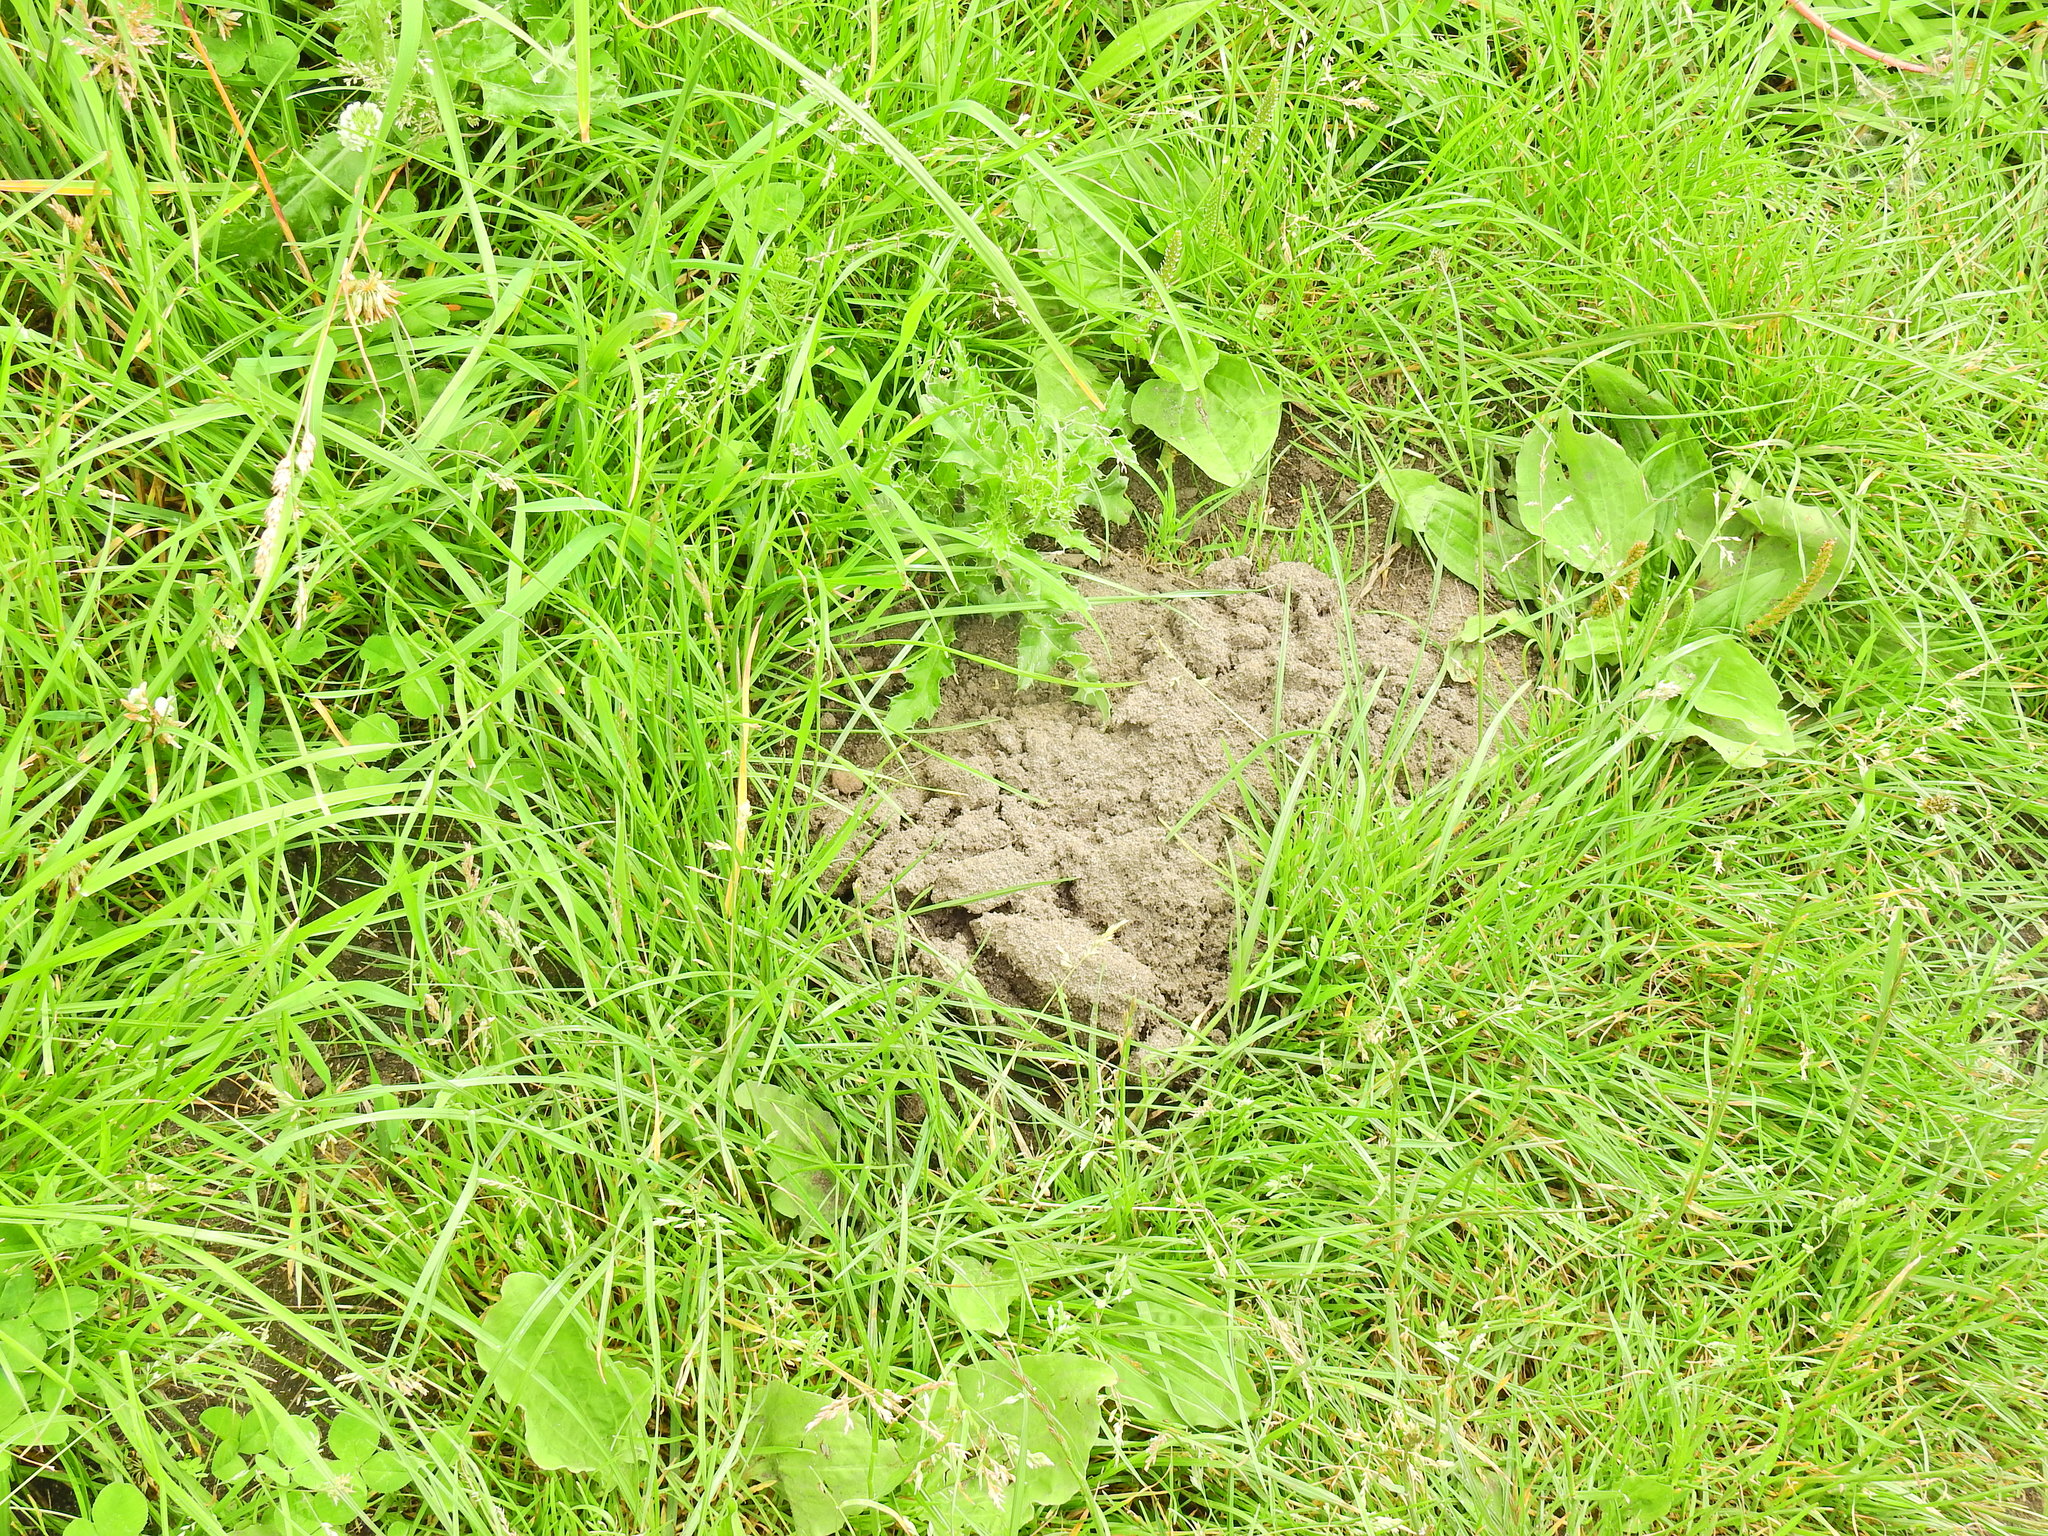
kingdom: Animalia
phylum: Chordata
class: Mammalia
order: Soricomorpha
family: Talpidae
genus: Talpa
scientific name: Talpa europaea
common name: European mole
